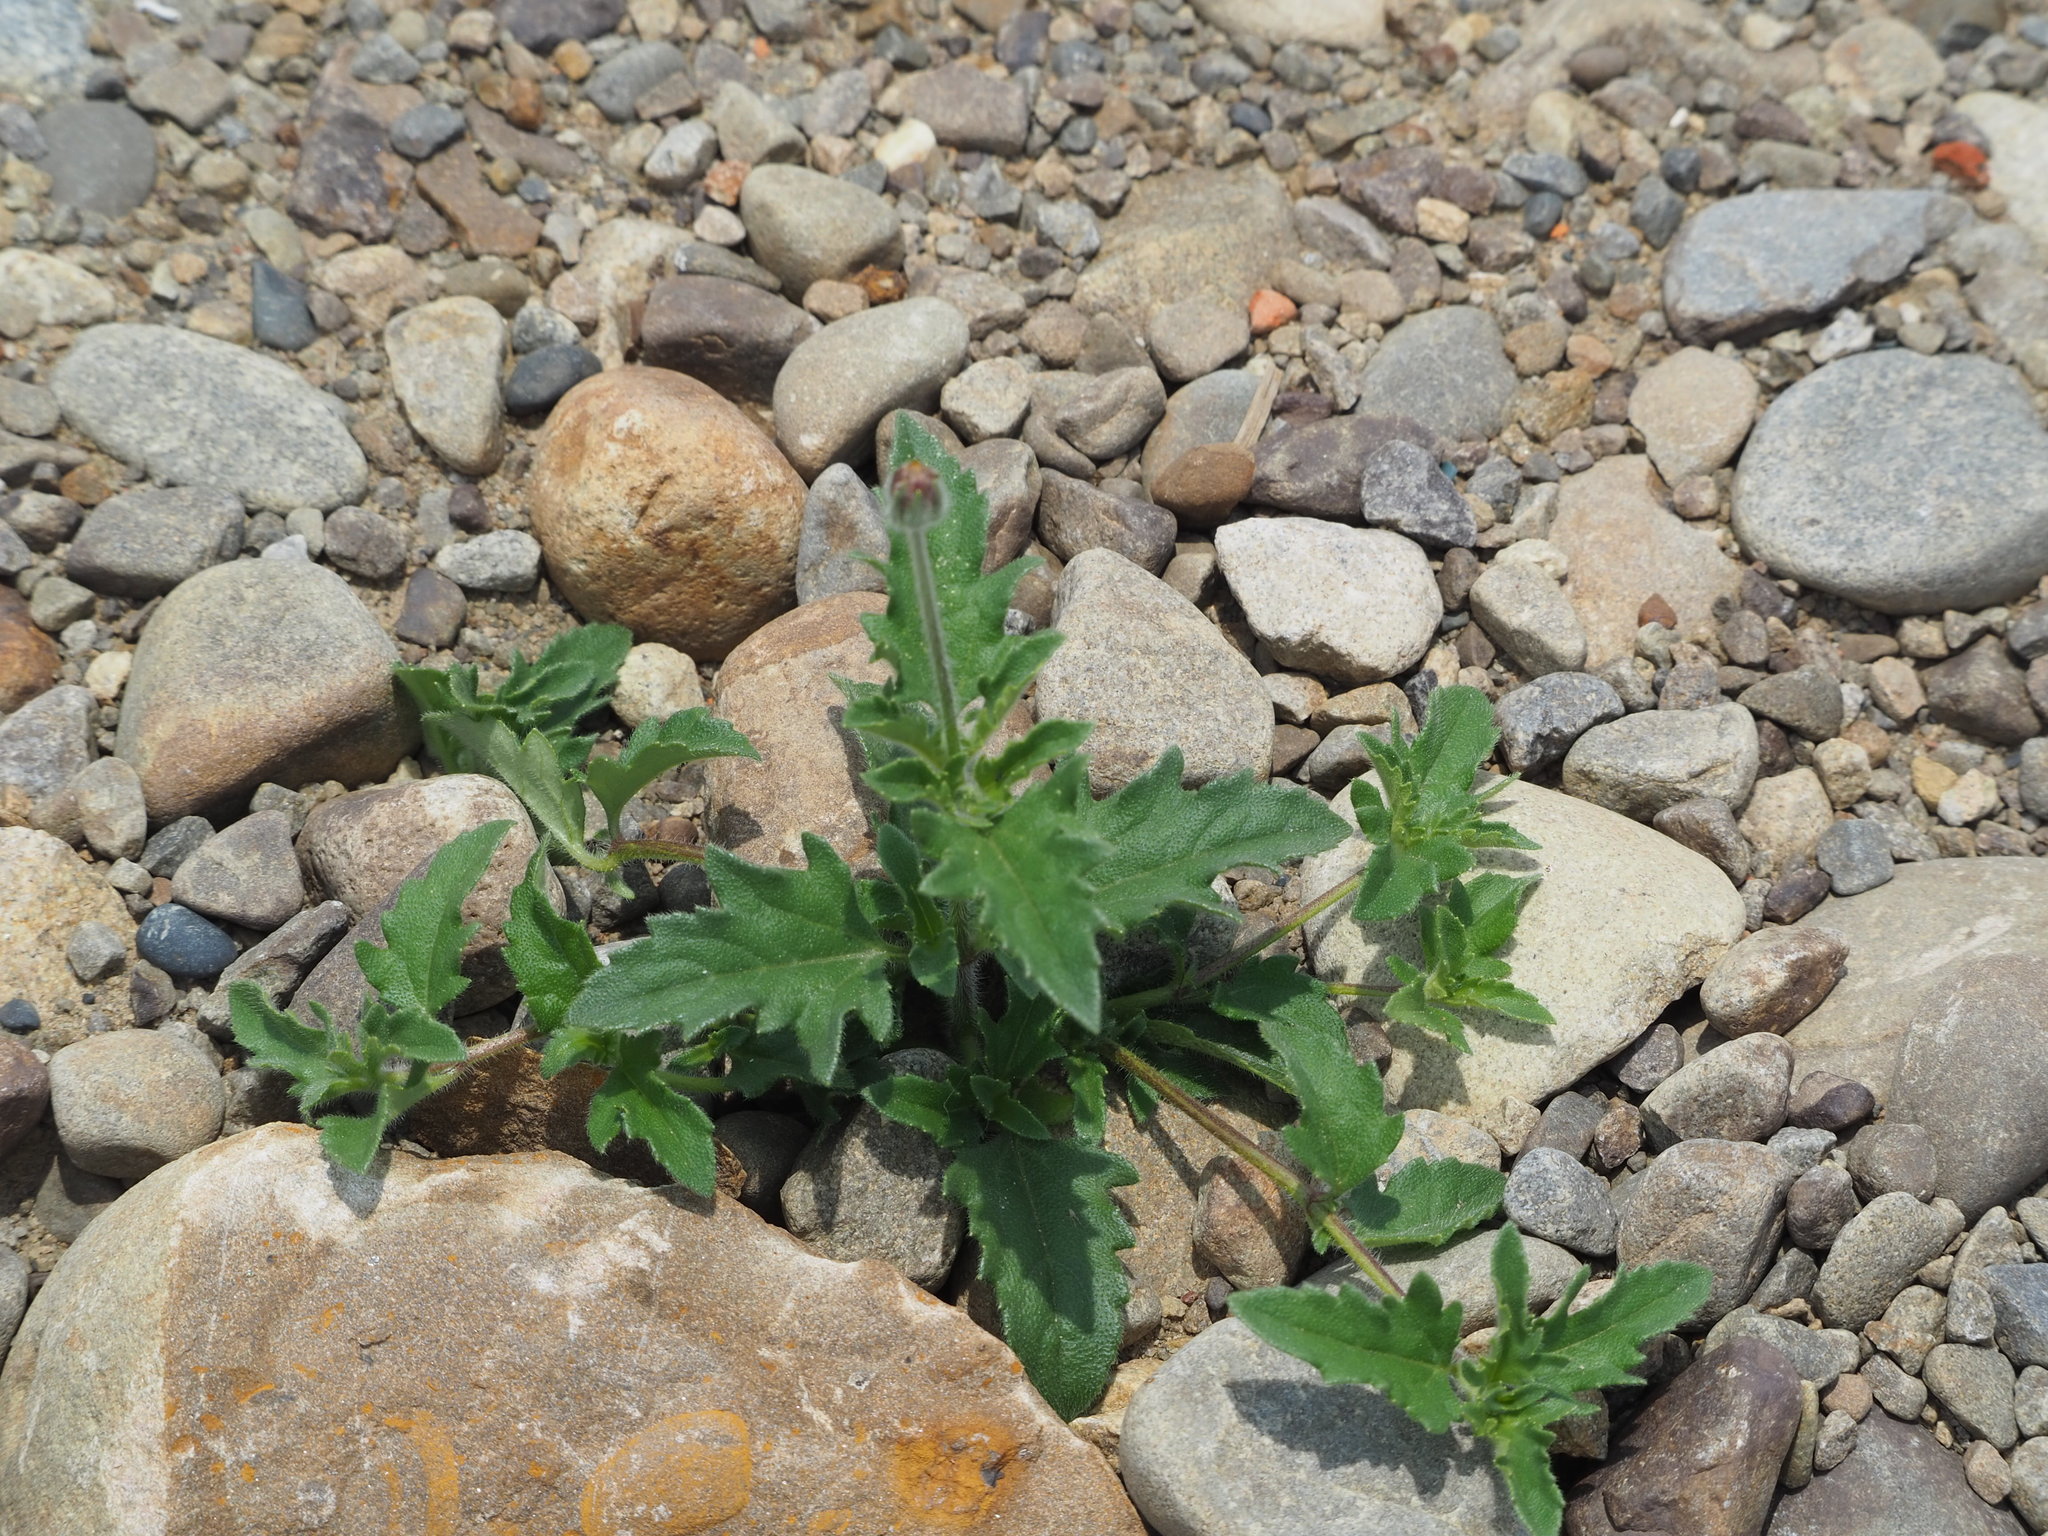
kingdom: Plantae
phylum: Tracheophyta
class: Magnoliopsida
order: Asterales
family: Asteraceae
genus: Tridax
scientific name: Tridax procumbens
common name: Coatbuttons
